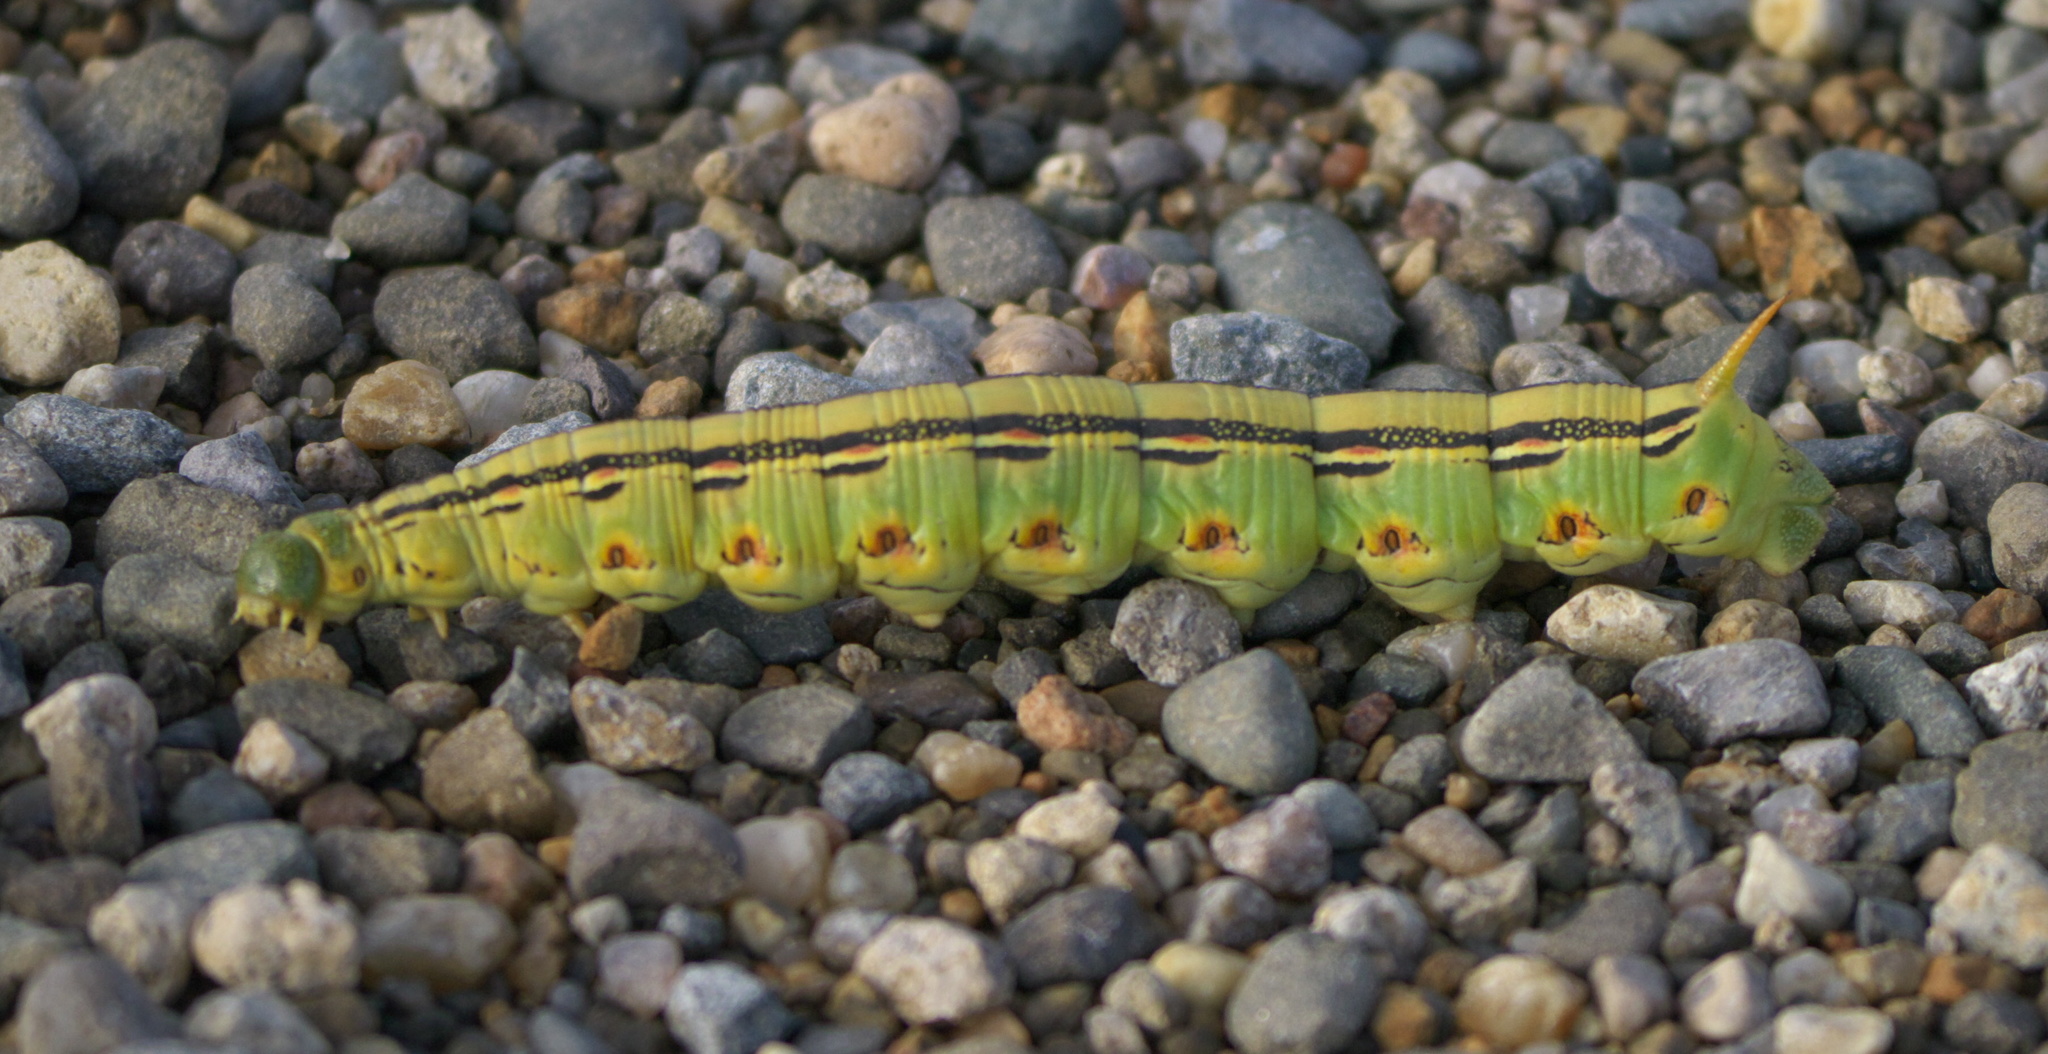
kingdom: Animalia
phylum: Arthropoda
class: Insecta
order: Lepidoptera
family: Sphingidae
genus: Hyles
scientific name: Hyles lineata
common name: White-lined sphinx
